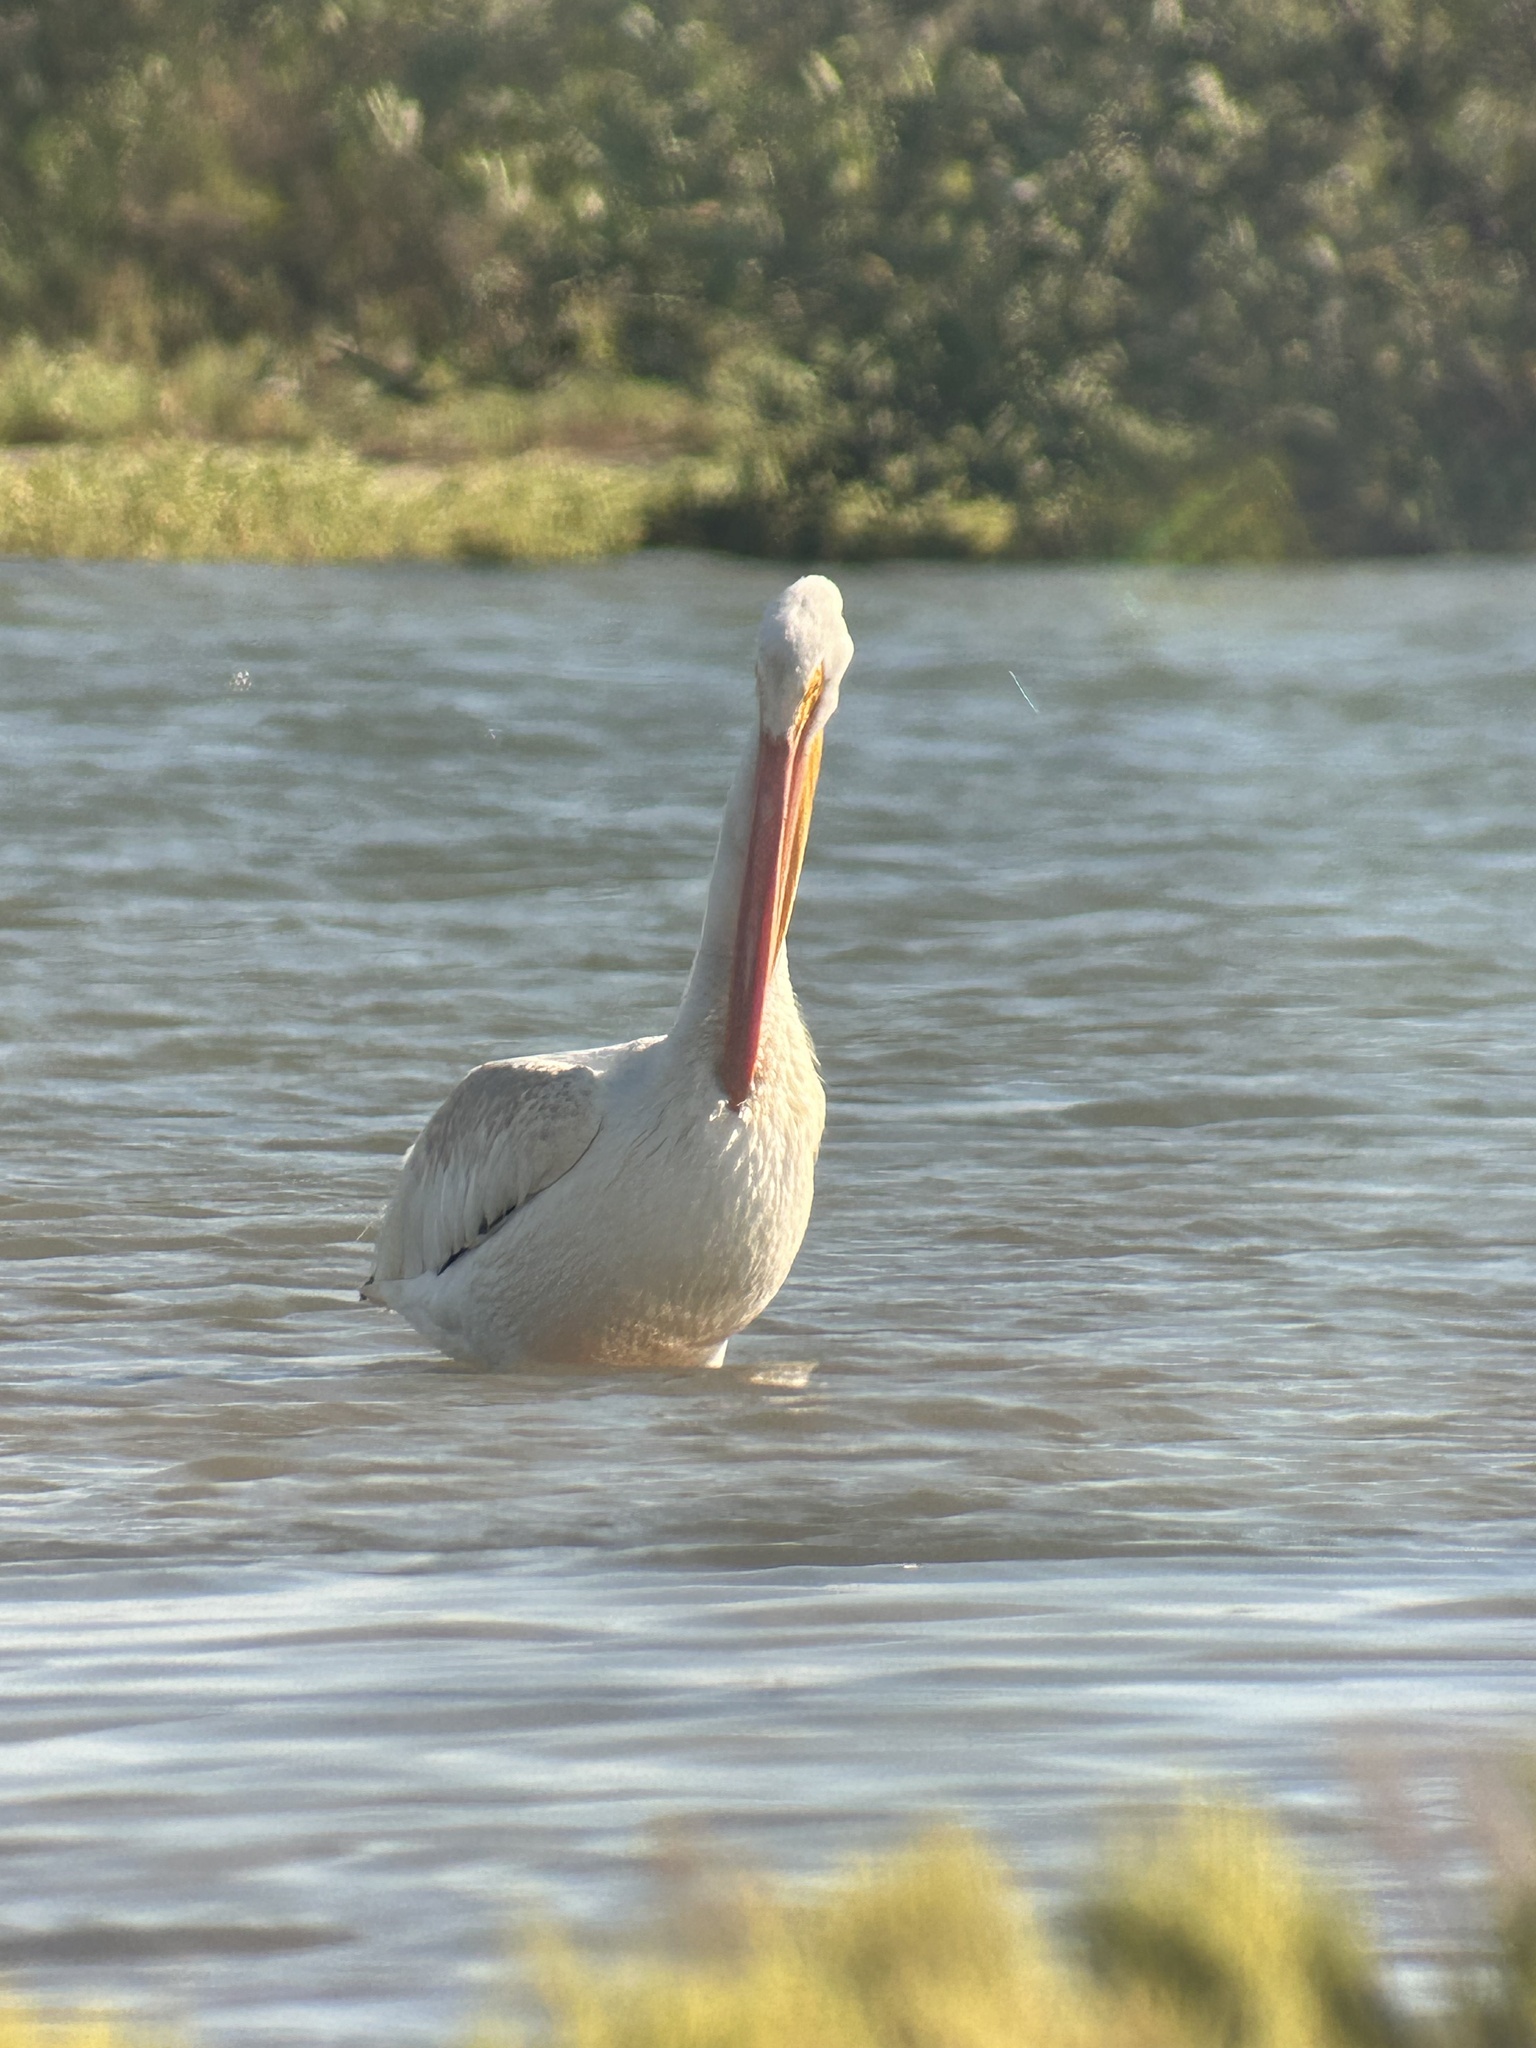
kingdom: Animalia
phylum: Chordata
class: Aves
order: Pelecaniformes
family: Pelecanidae
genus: Pelecanus
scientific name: Pelecanus erythrorhynchos
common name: American white pelican
